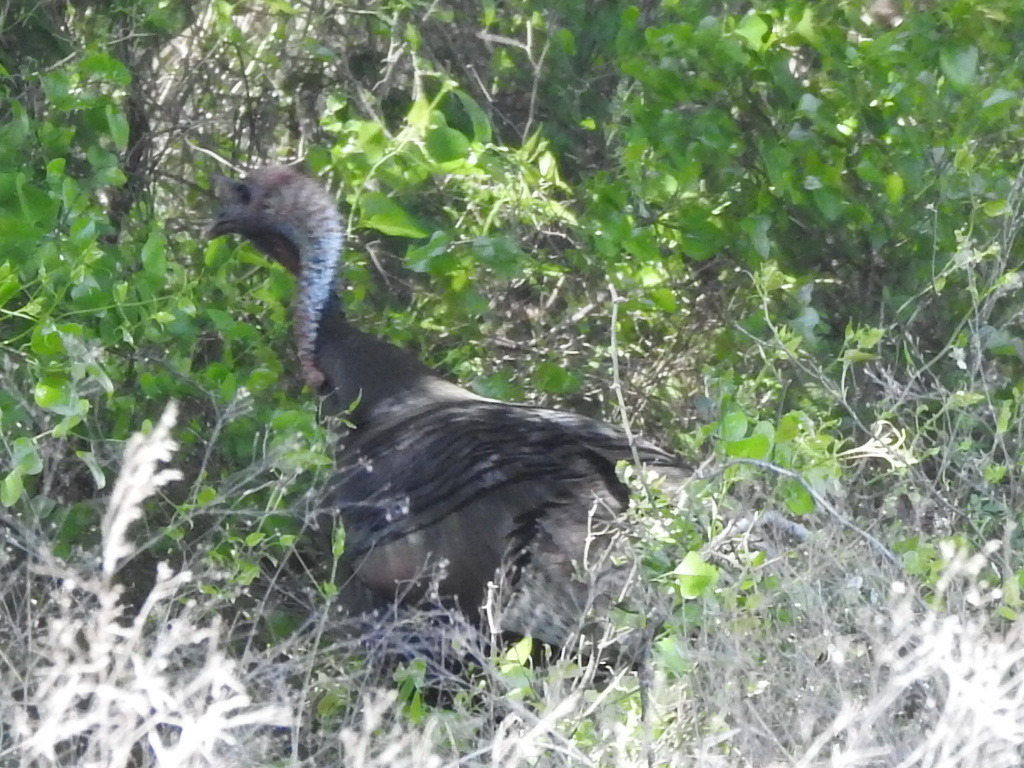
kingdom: Animalia
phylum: Chordata
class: Aves
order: Galliformes
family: Phasianidae
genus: Meleagris
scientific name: Meleagris gallopavo
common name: Wild turkey
